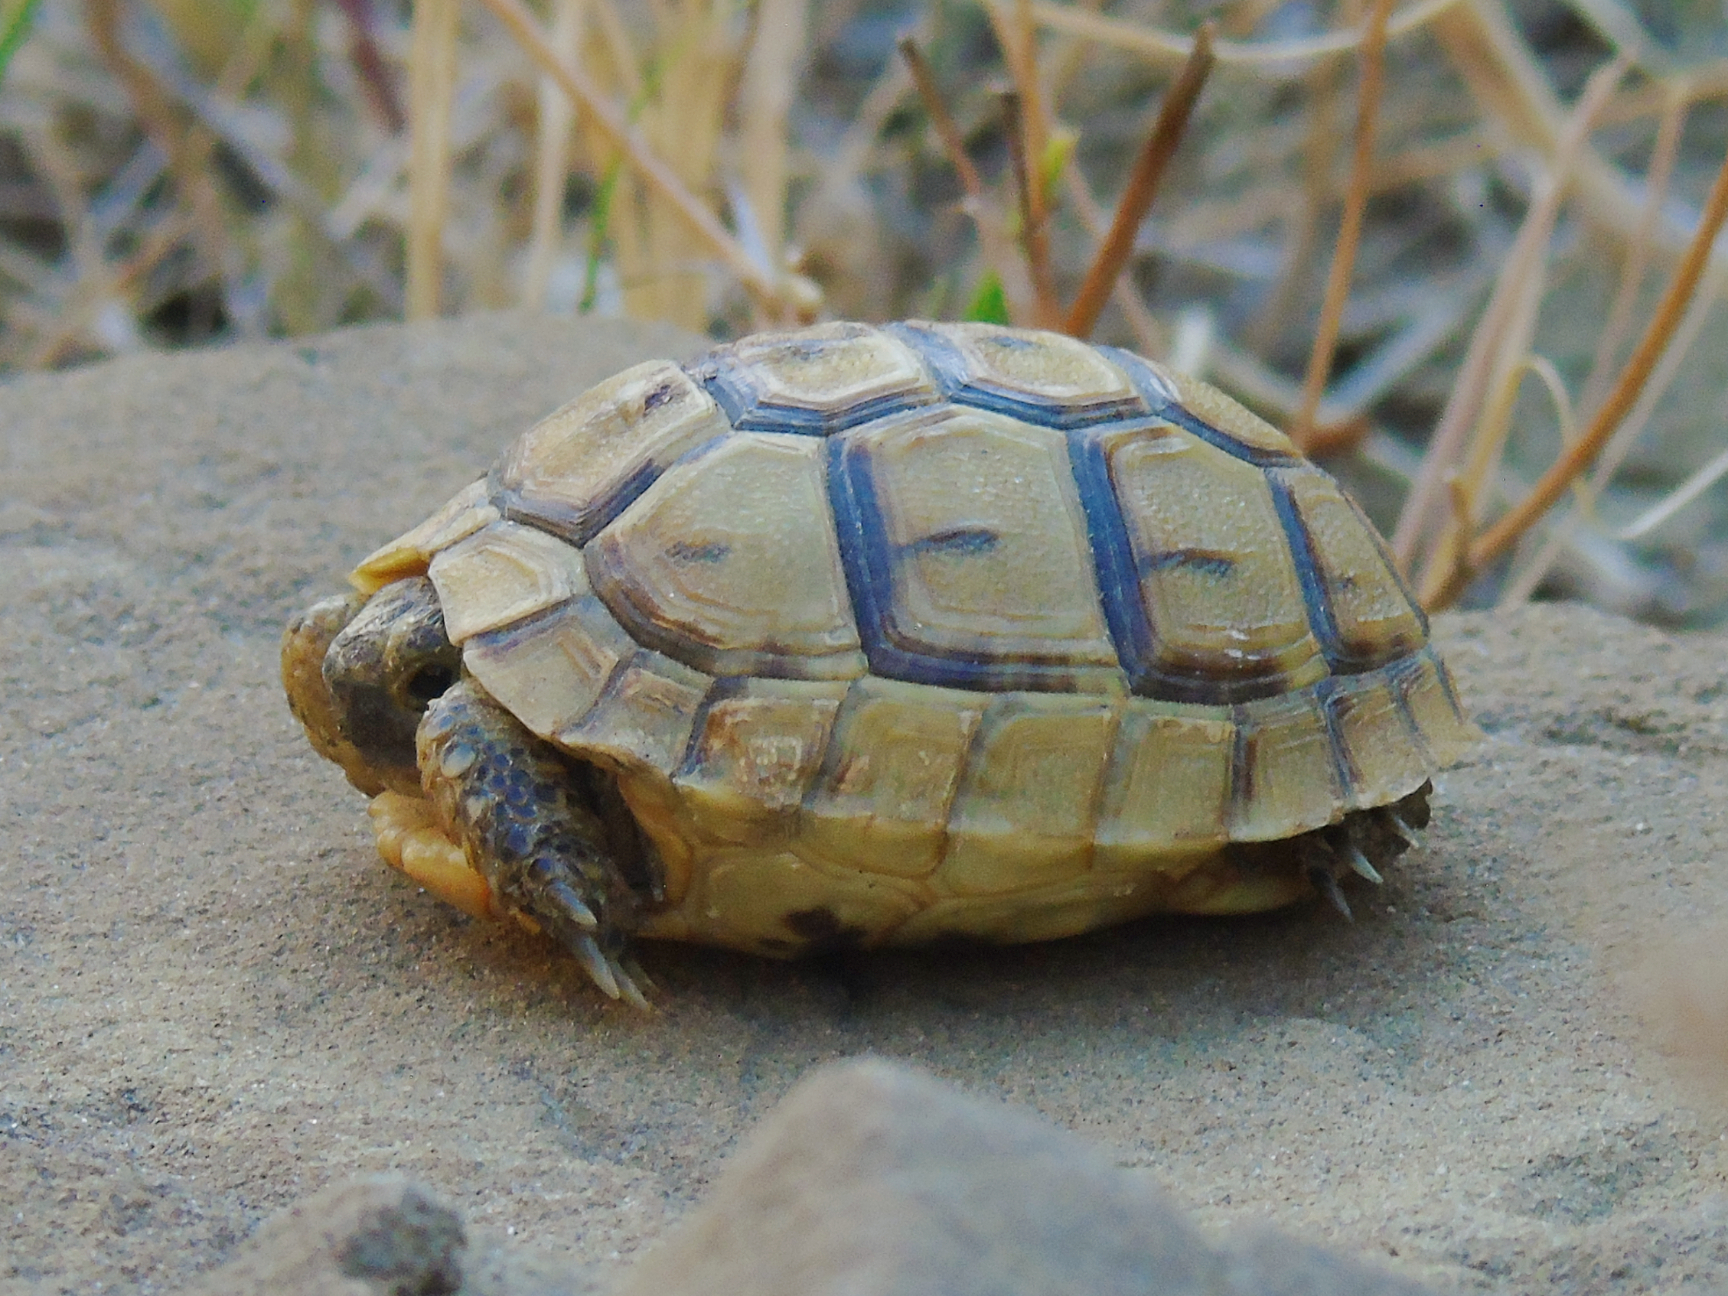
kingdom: Animalia
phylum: Chordata
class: Testudines
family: Testudinidae
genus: Testudo
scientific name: Testudo graeca
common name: Common tortoise
